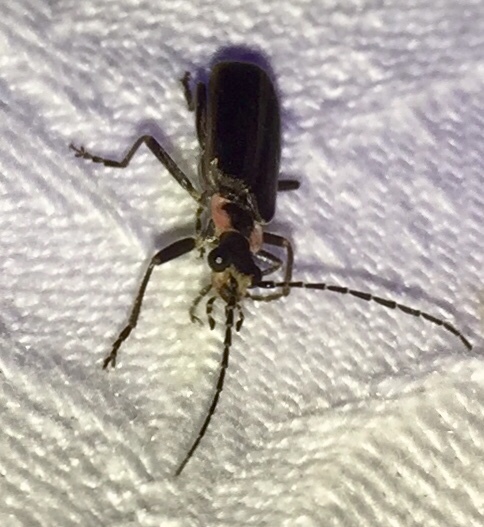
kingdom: Animalia
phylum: Arthropoda
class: Insecta
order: Coleoptera
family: Cantharidae
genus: Podabrus
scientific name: Podabrus brevicollis
